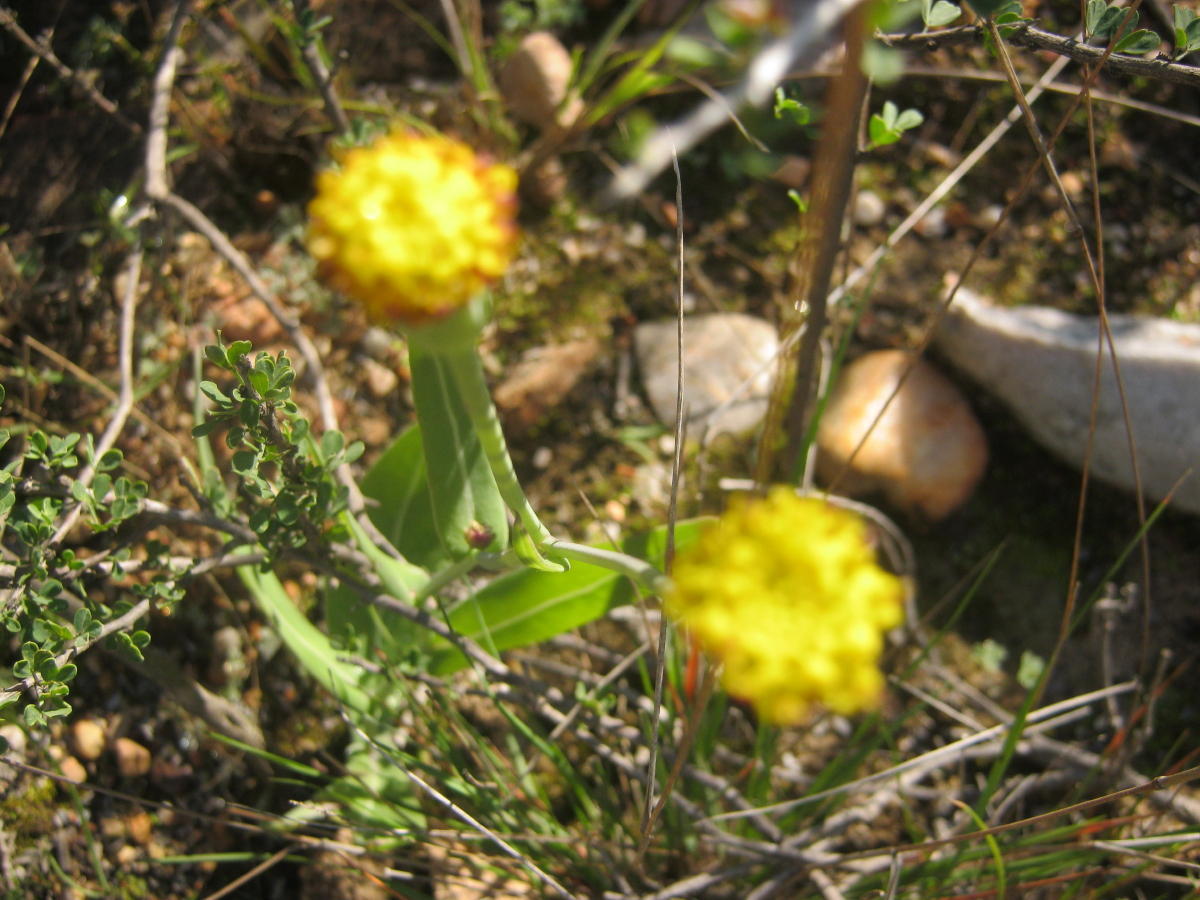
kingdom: Plantae
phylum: Tracheophyta
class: Magnoliopsida
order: Asterales
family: Asteraceae
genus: Othonna
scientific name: Othonna gymnodiscus
